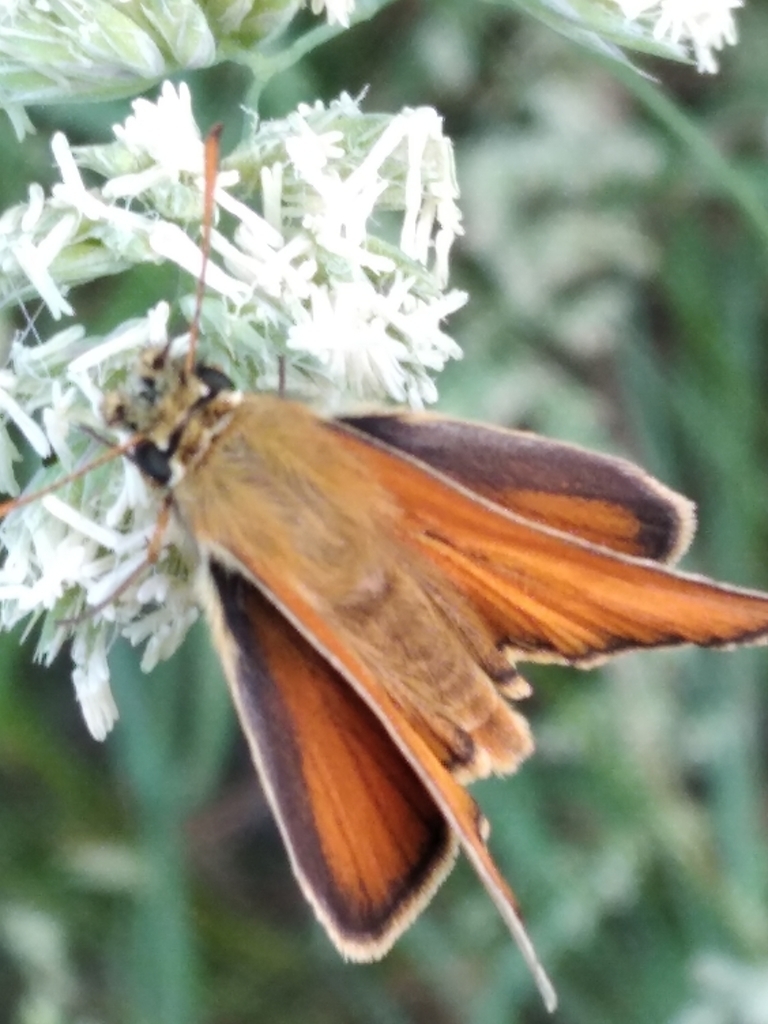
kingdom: Animalia
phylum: Arthropoda
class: Insecta
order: Lepidoptera
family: Hesperiidae
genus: Thymelicus
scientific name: Thymelicus sylvestris
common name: Small skipper
